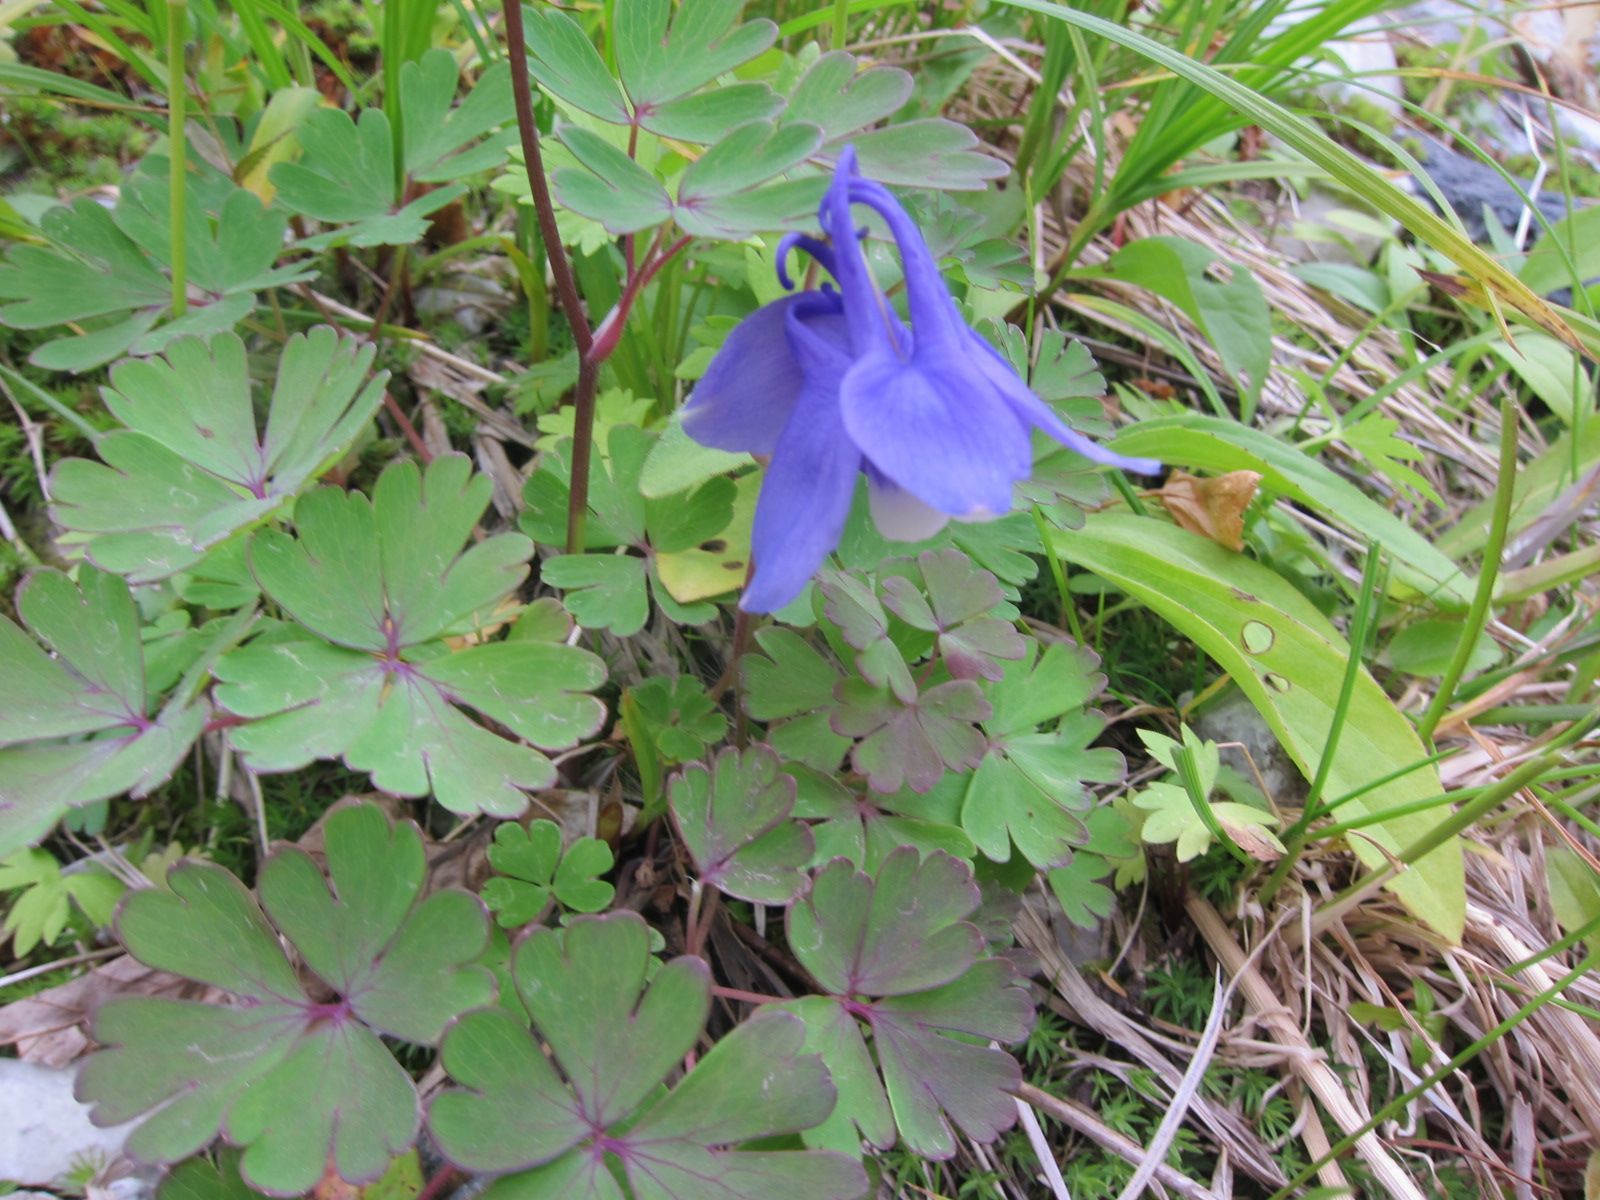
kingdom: Plantae
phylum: Tracheophyta
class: Magnoliopsida
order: Ranunculales
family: Ranunculaceae
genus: Aquilegia
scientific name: Aquilegia flabellata
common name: Fan columbine
